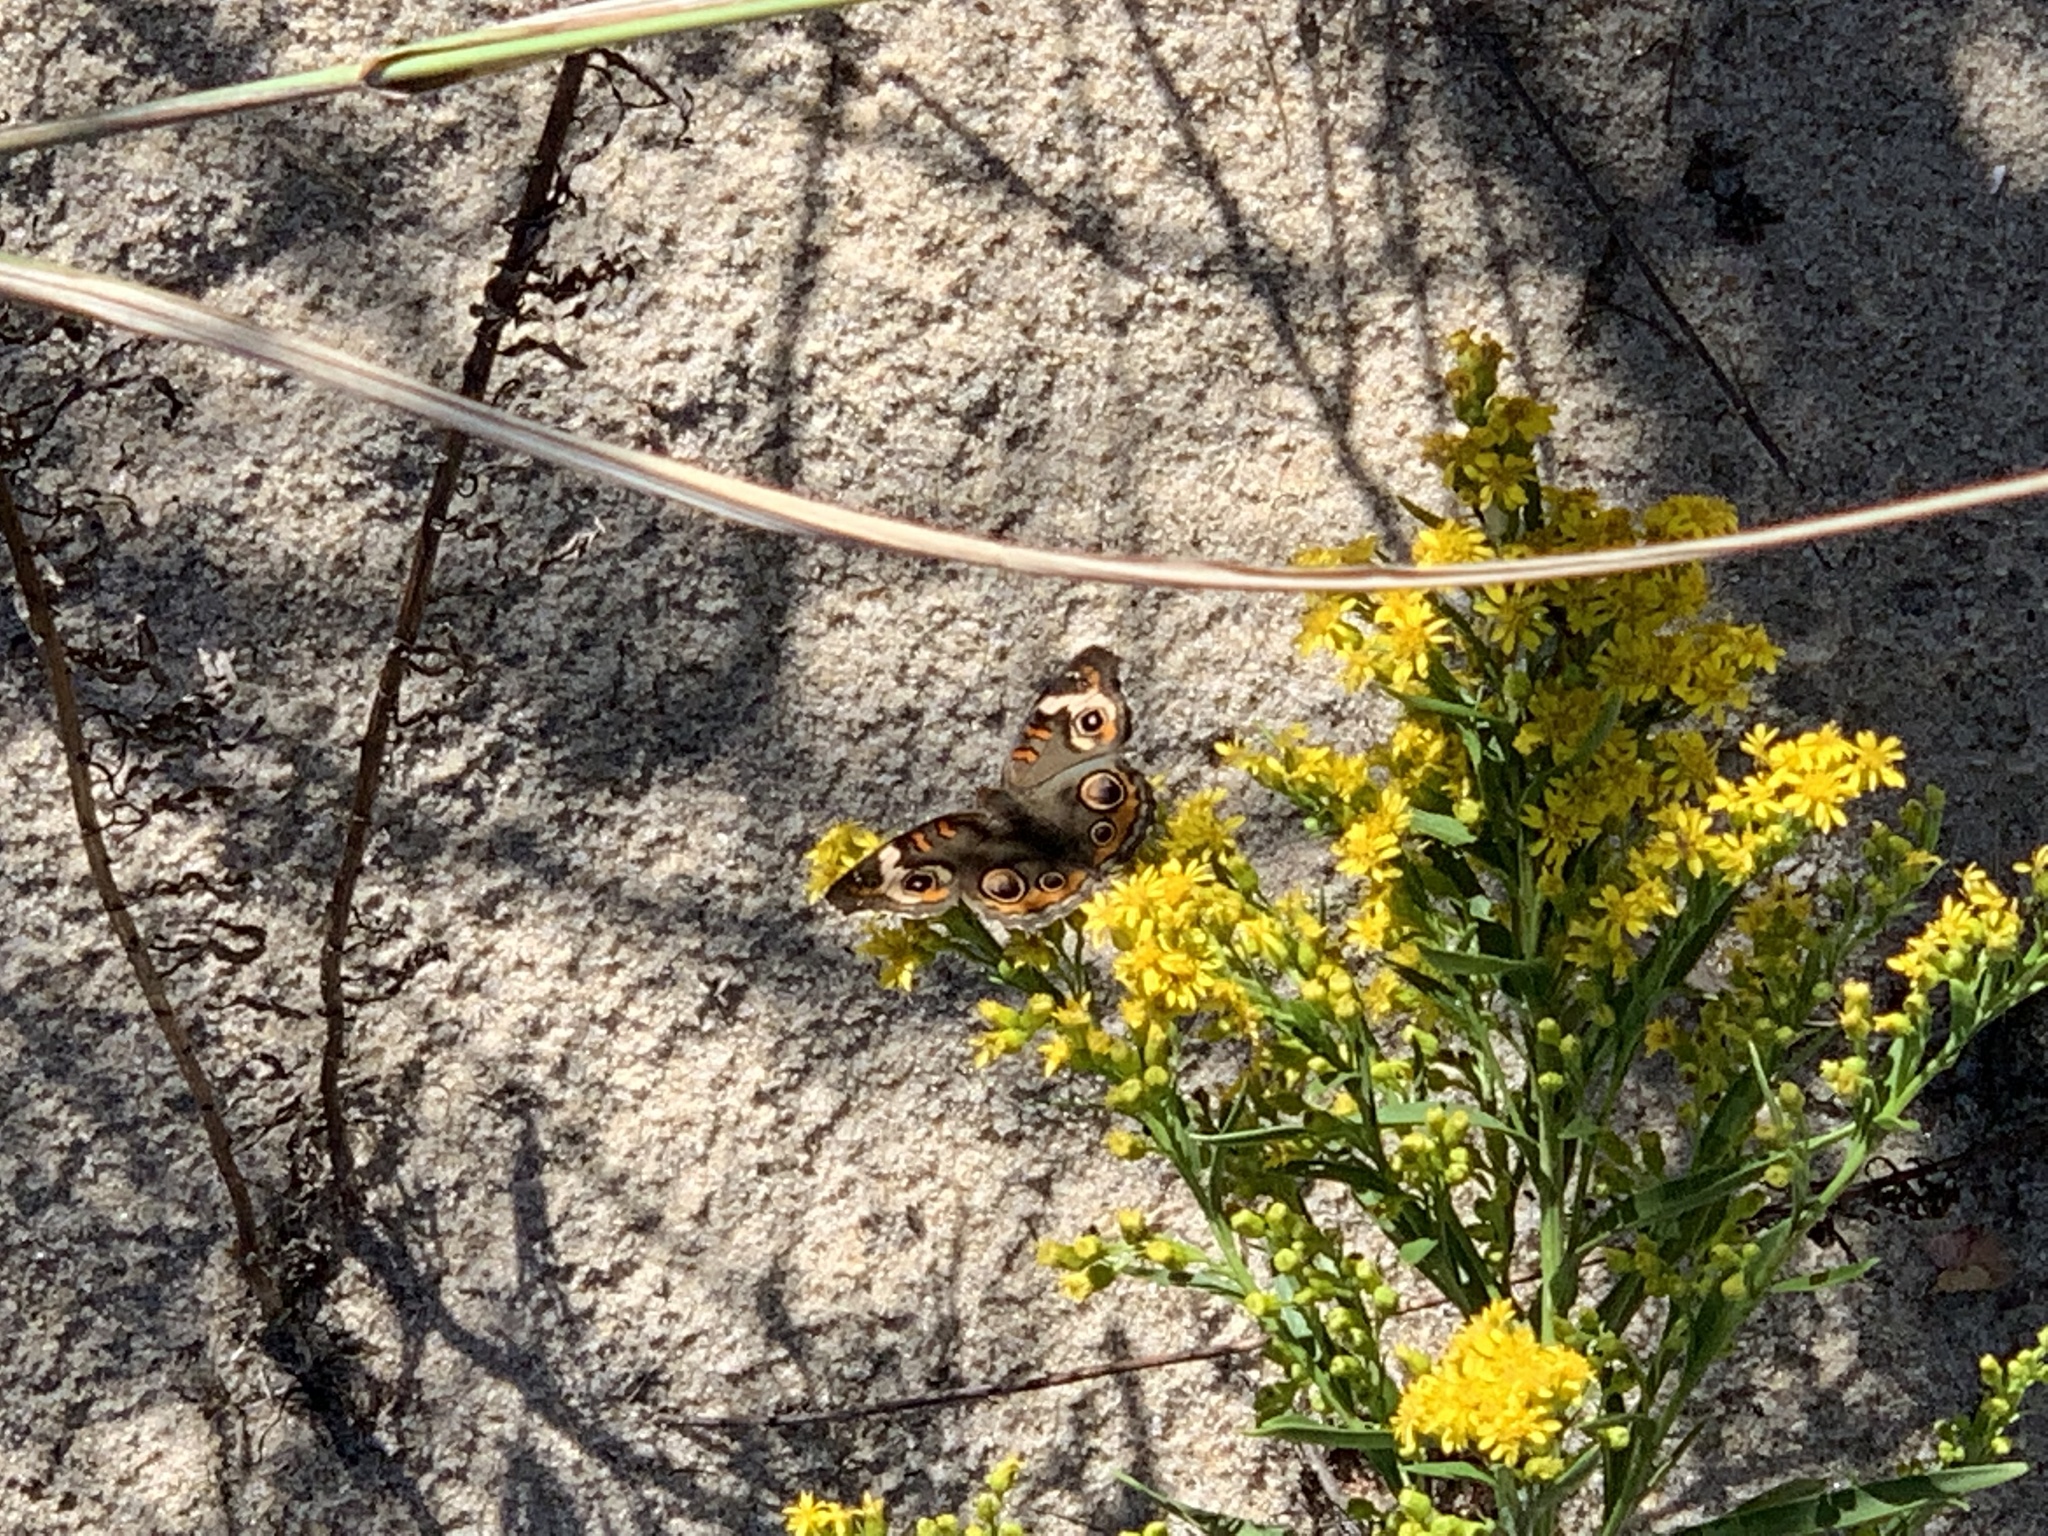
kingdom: Animalia
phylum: Arthropoda
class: Insecta
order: Lepidoptera
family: Nymphalidae
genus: Junonia
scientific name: Junonia coenia
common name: Common buckeye
